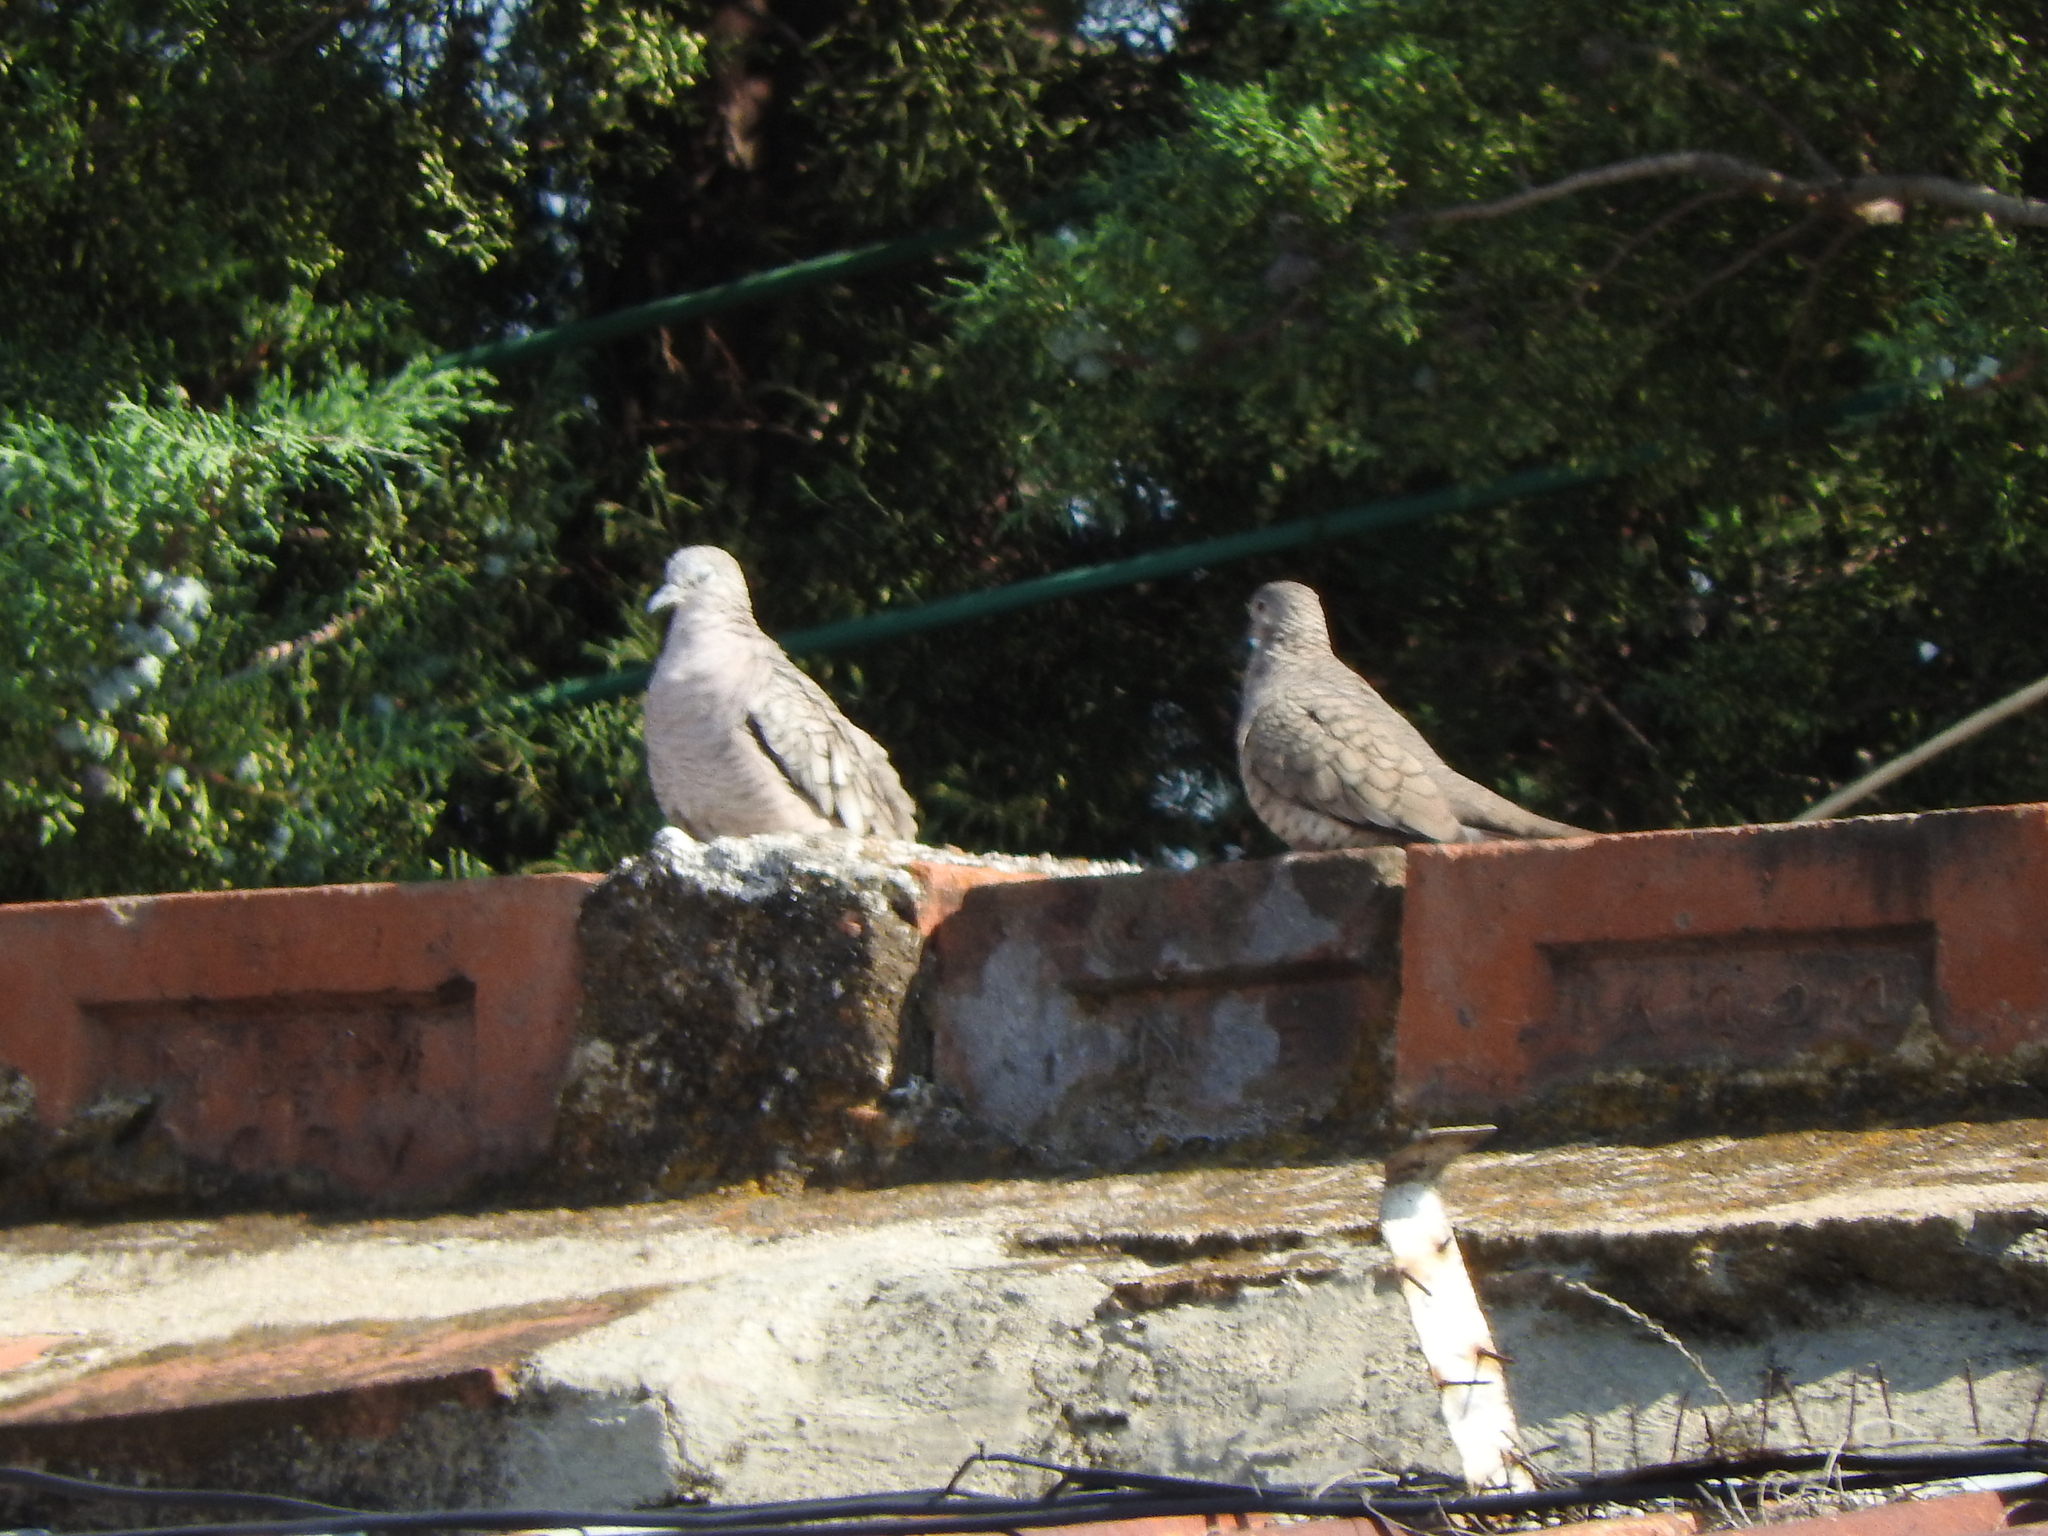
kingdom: Animalia
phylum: Chordata
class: Aves
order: Columbiformes
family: Columbidae
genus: Columbina
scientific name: Columbina inca
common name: Inca dove
